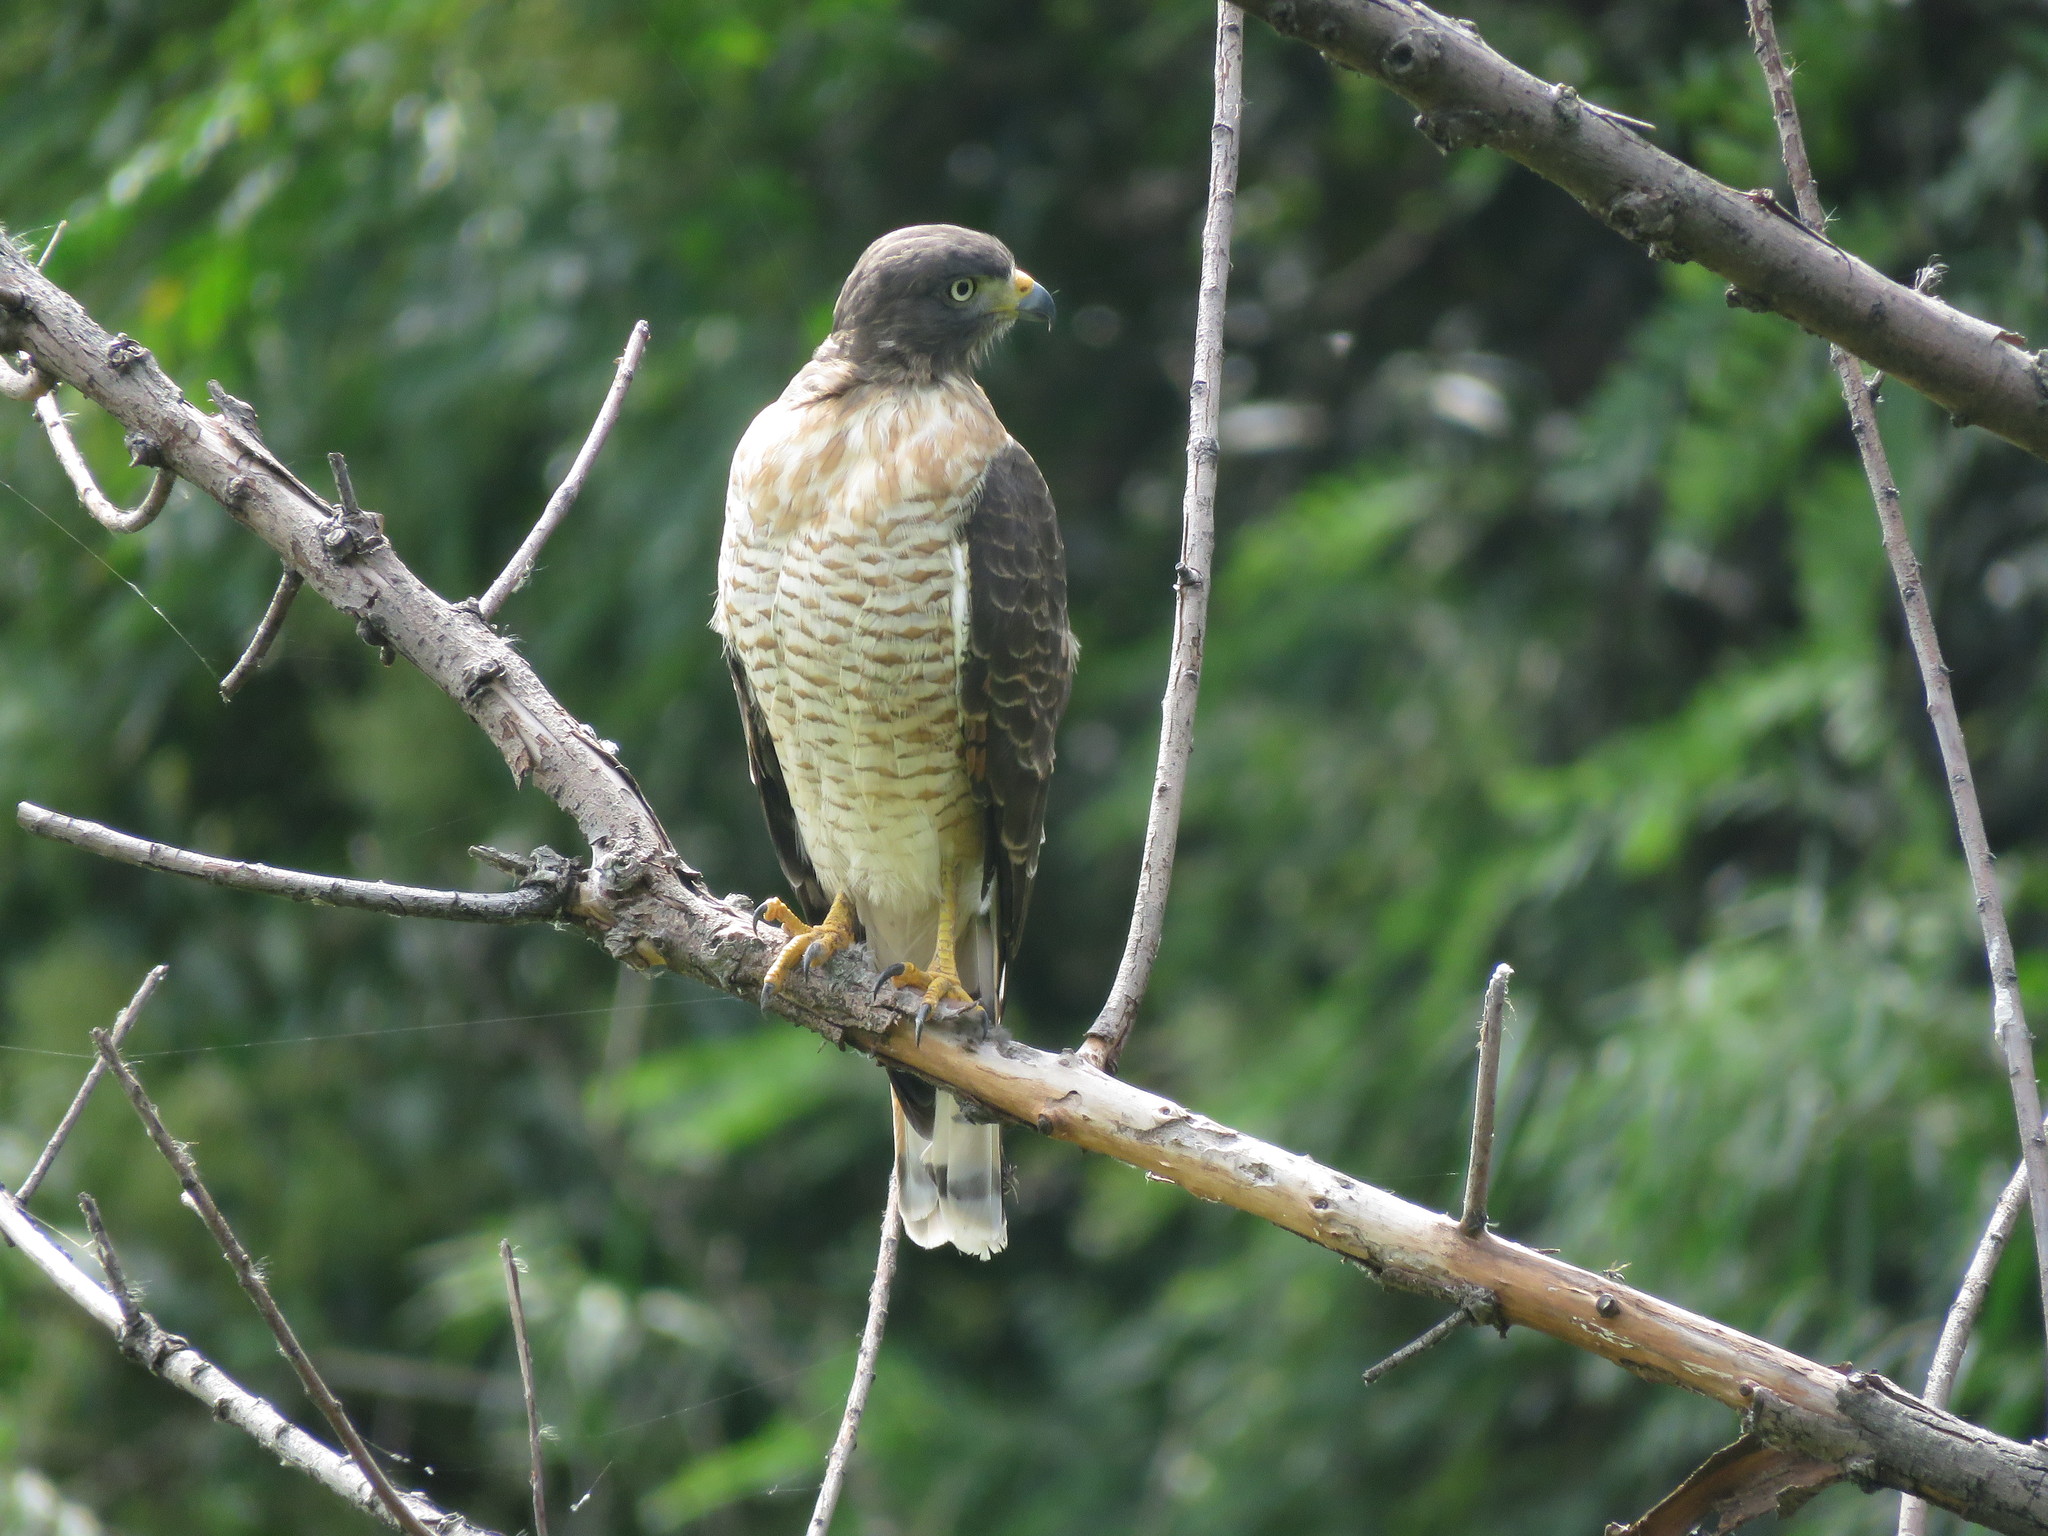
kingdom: Animalia
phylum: Chordata
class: Aves
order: Accipitriformes
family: Accipitridae
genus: Rupornis
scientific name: Rupornis magnirostris
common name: Roadside hawk
